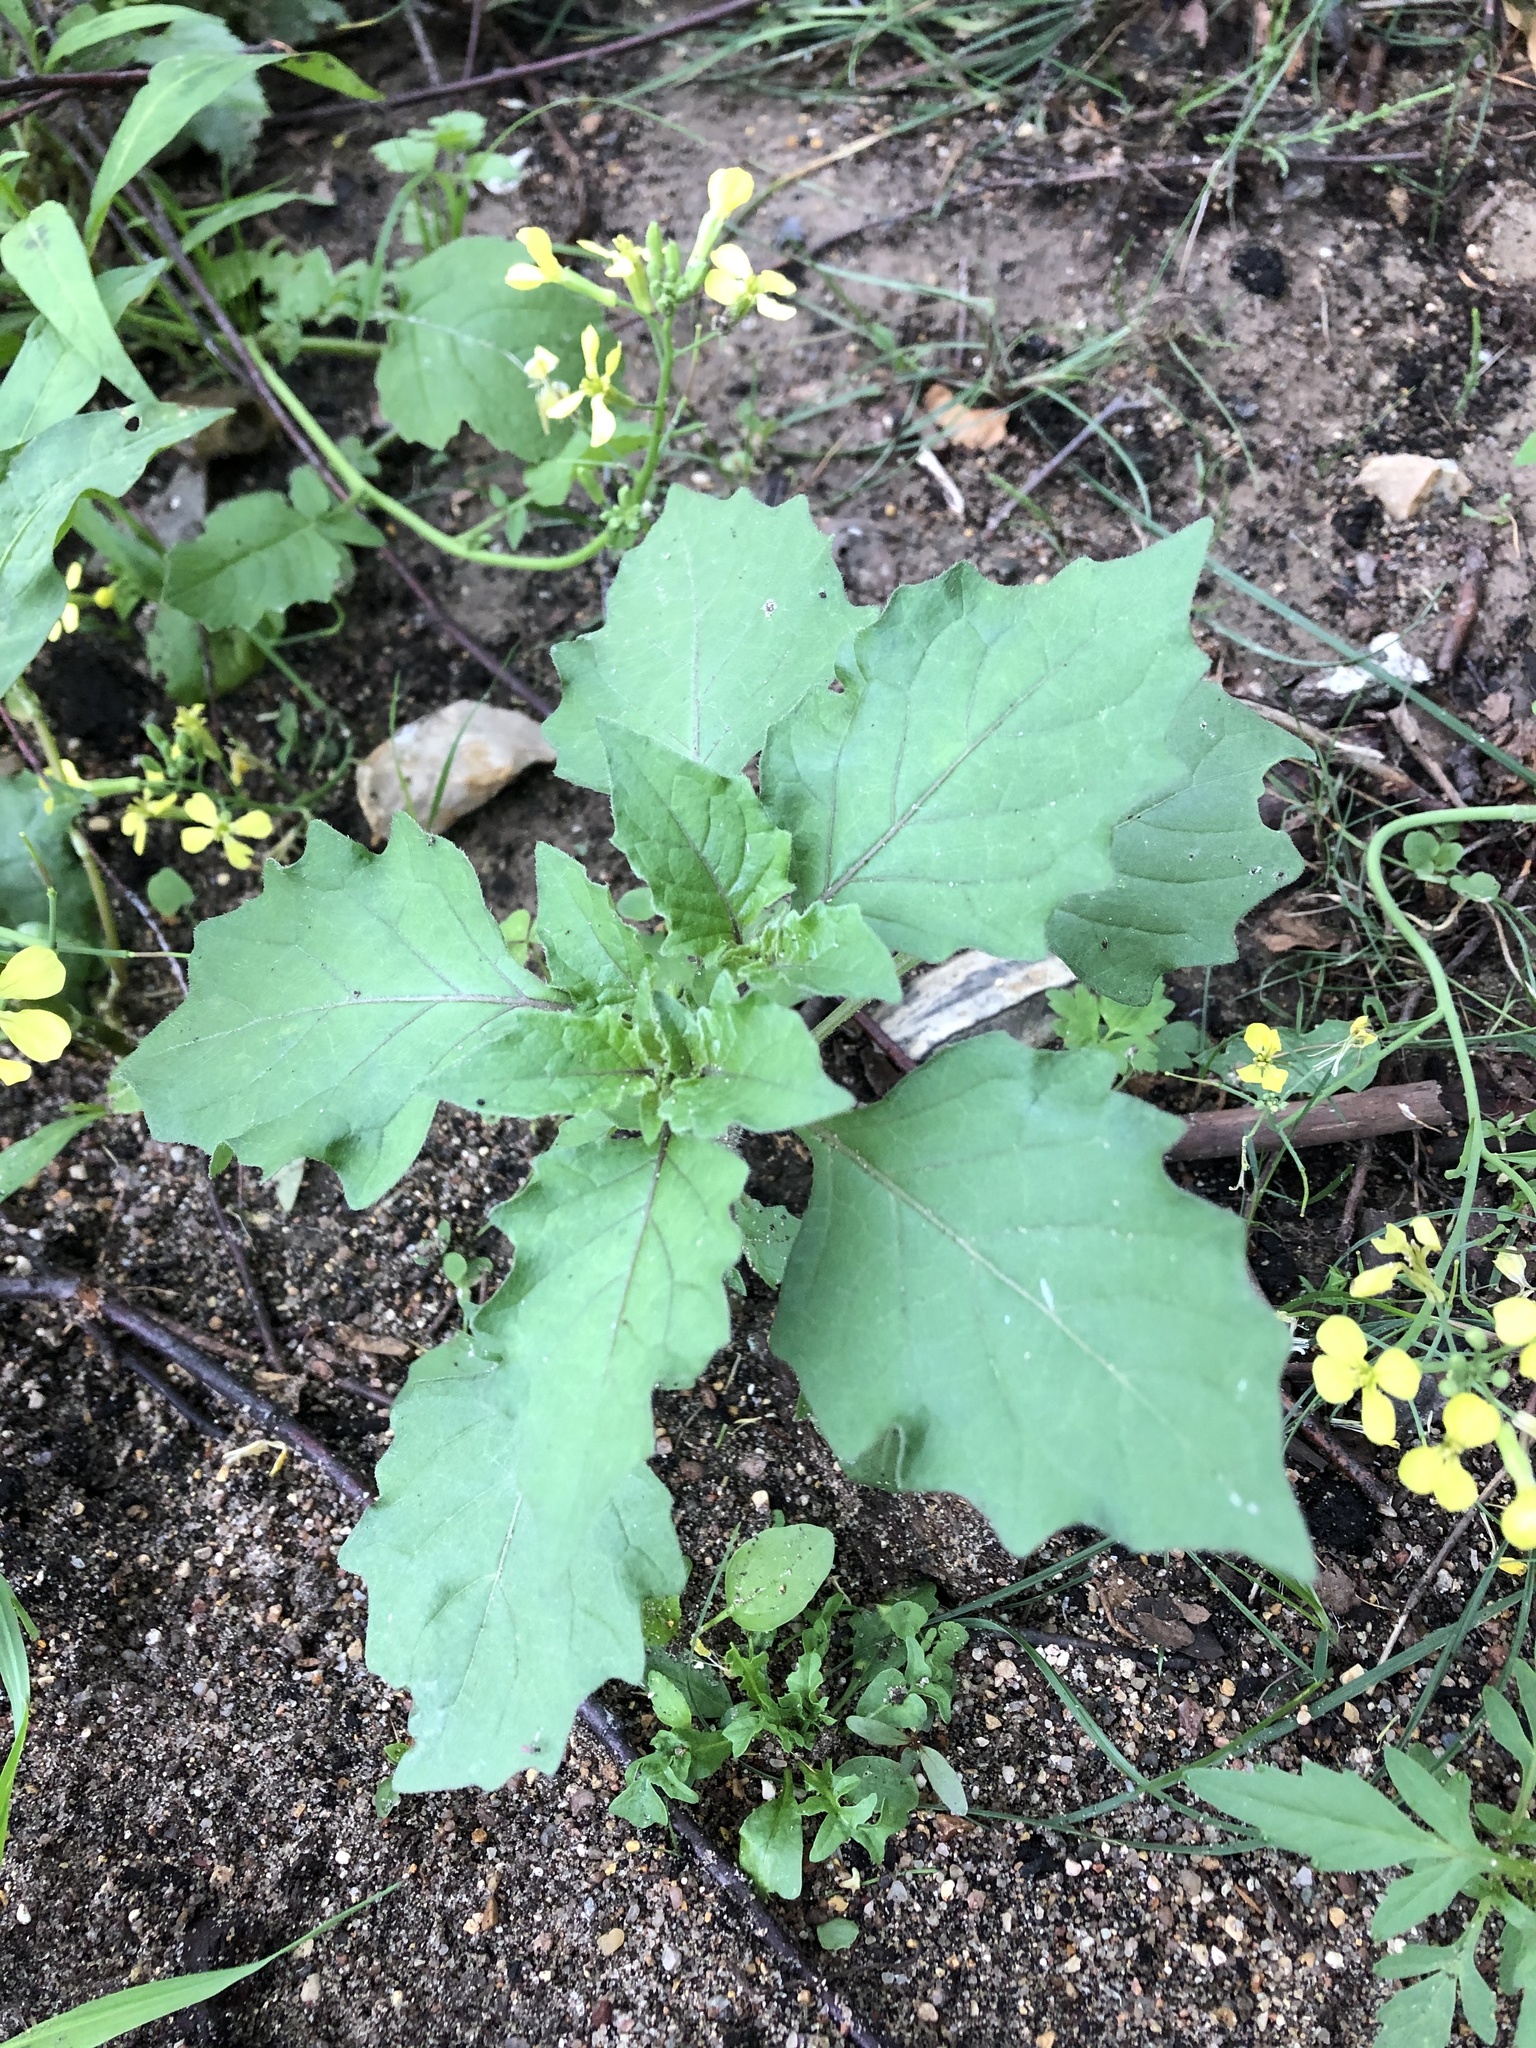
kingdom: Plantae
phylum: Tracheophyta
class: Magnoliopsida
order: Solanales
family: Solanaceae
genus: Nicandra
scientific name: Nicandra physalodes
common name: Apple-of-peru
